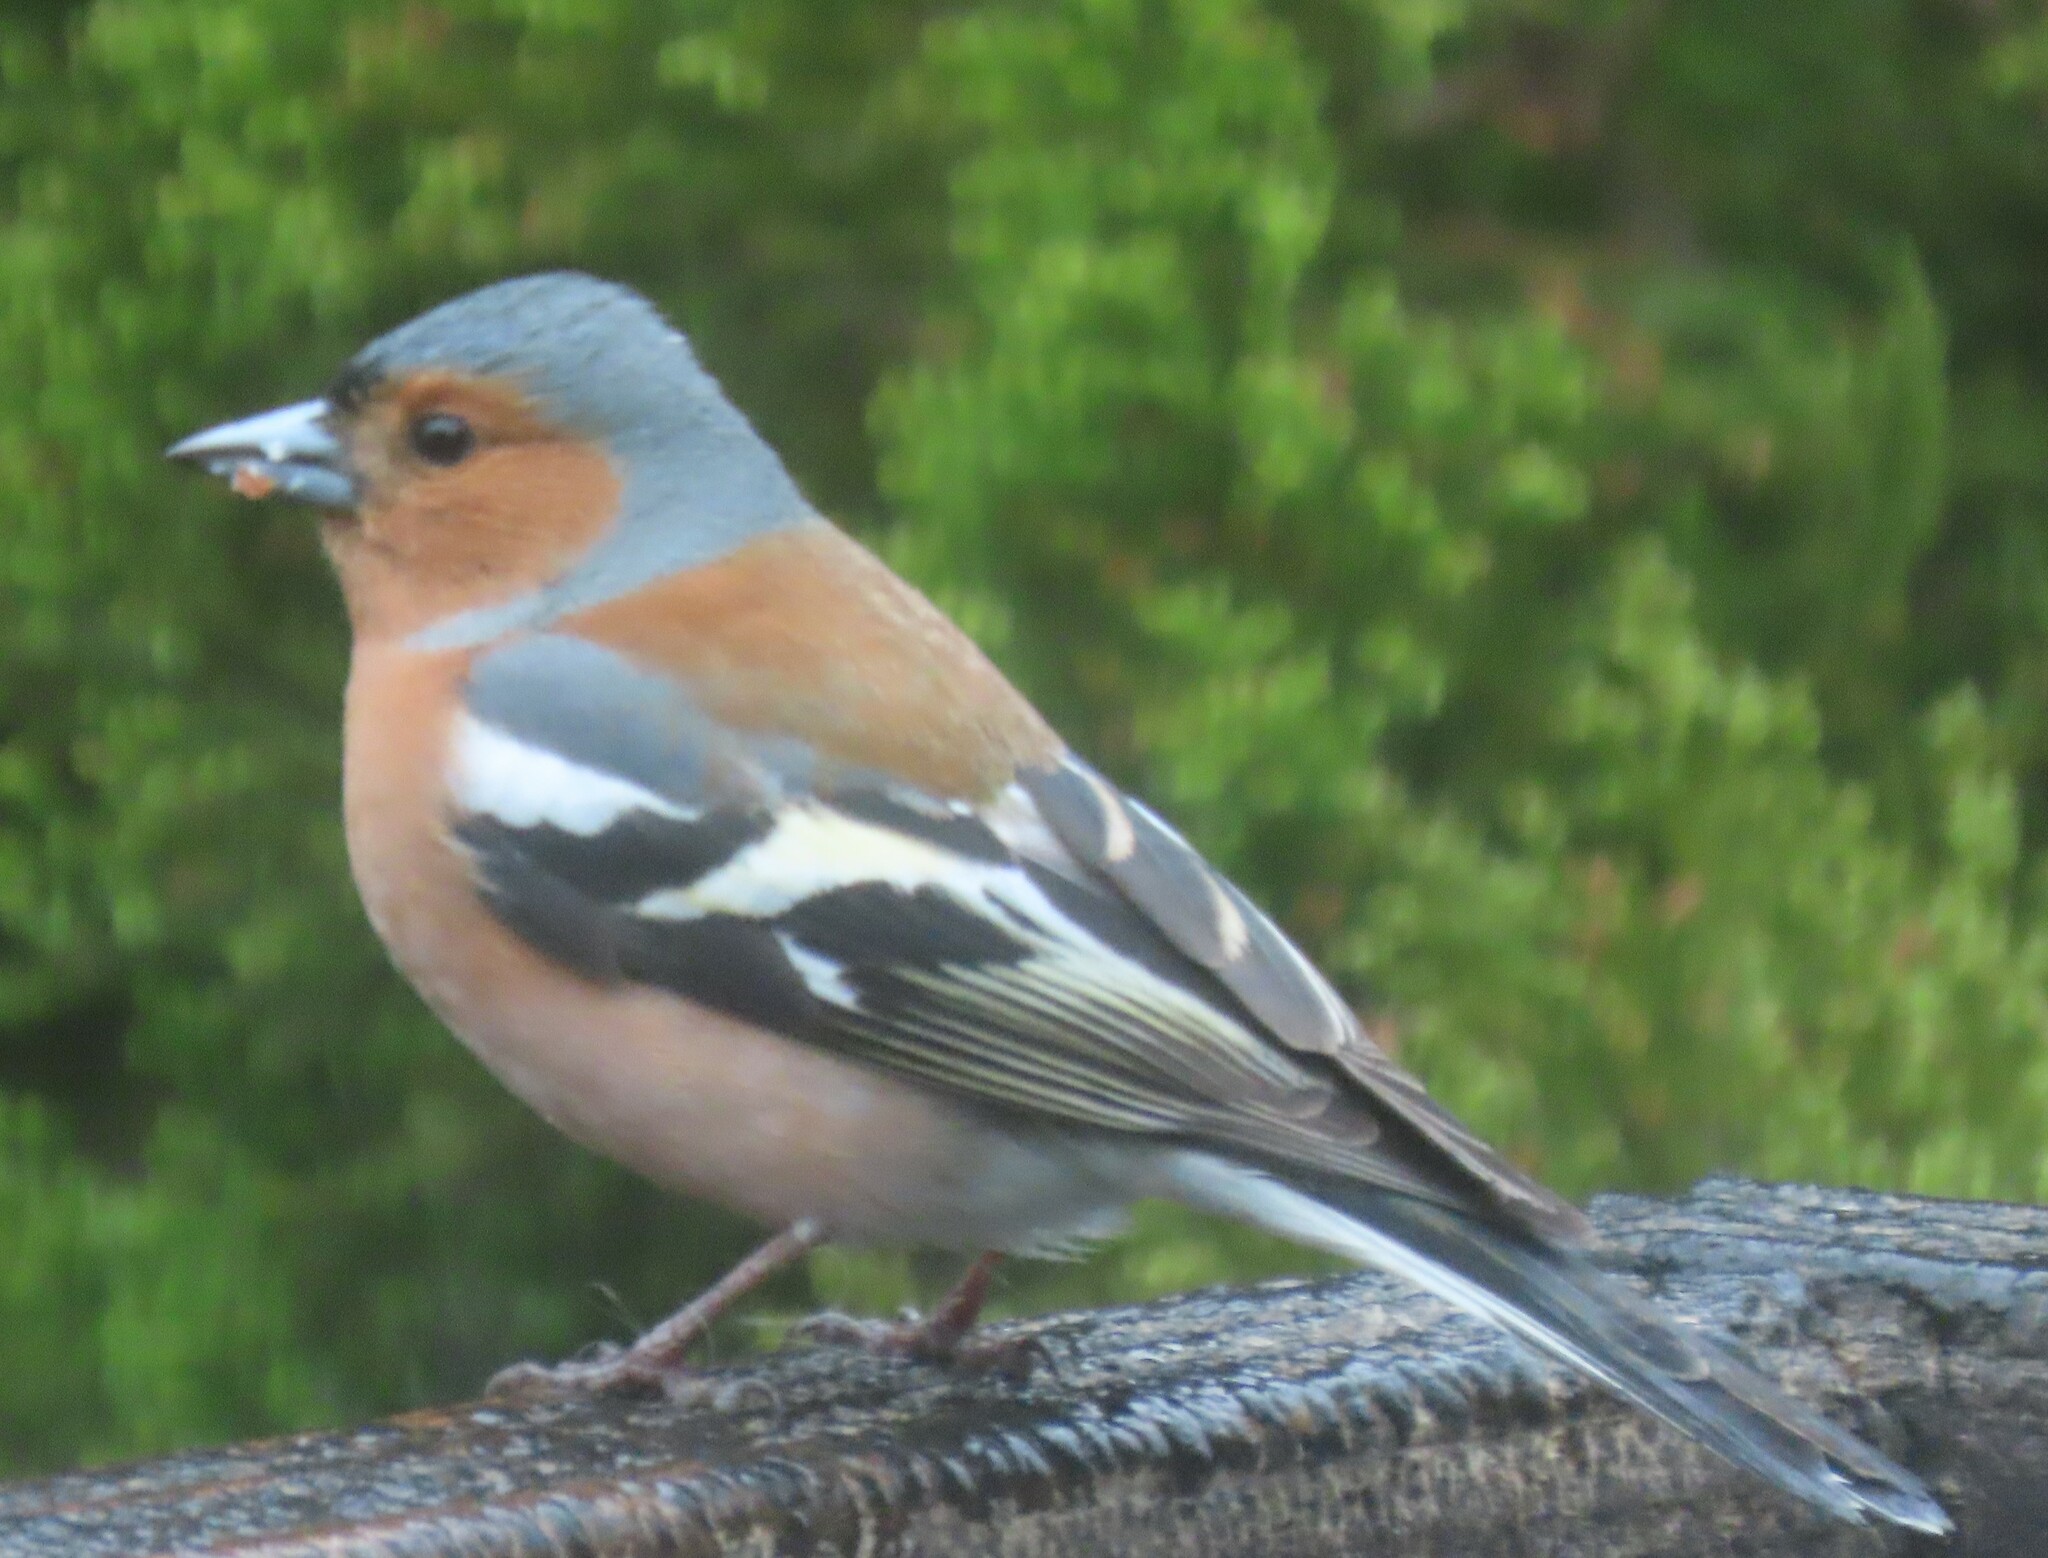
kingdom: Animalia
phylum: Chordata
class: Aves
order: Passeriformes
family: Fringillidae
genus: Fringilla
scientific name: Fringilla coelebs
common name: Common chaffinch
